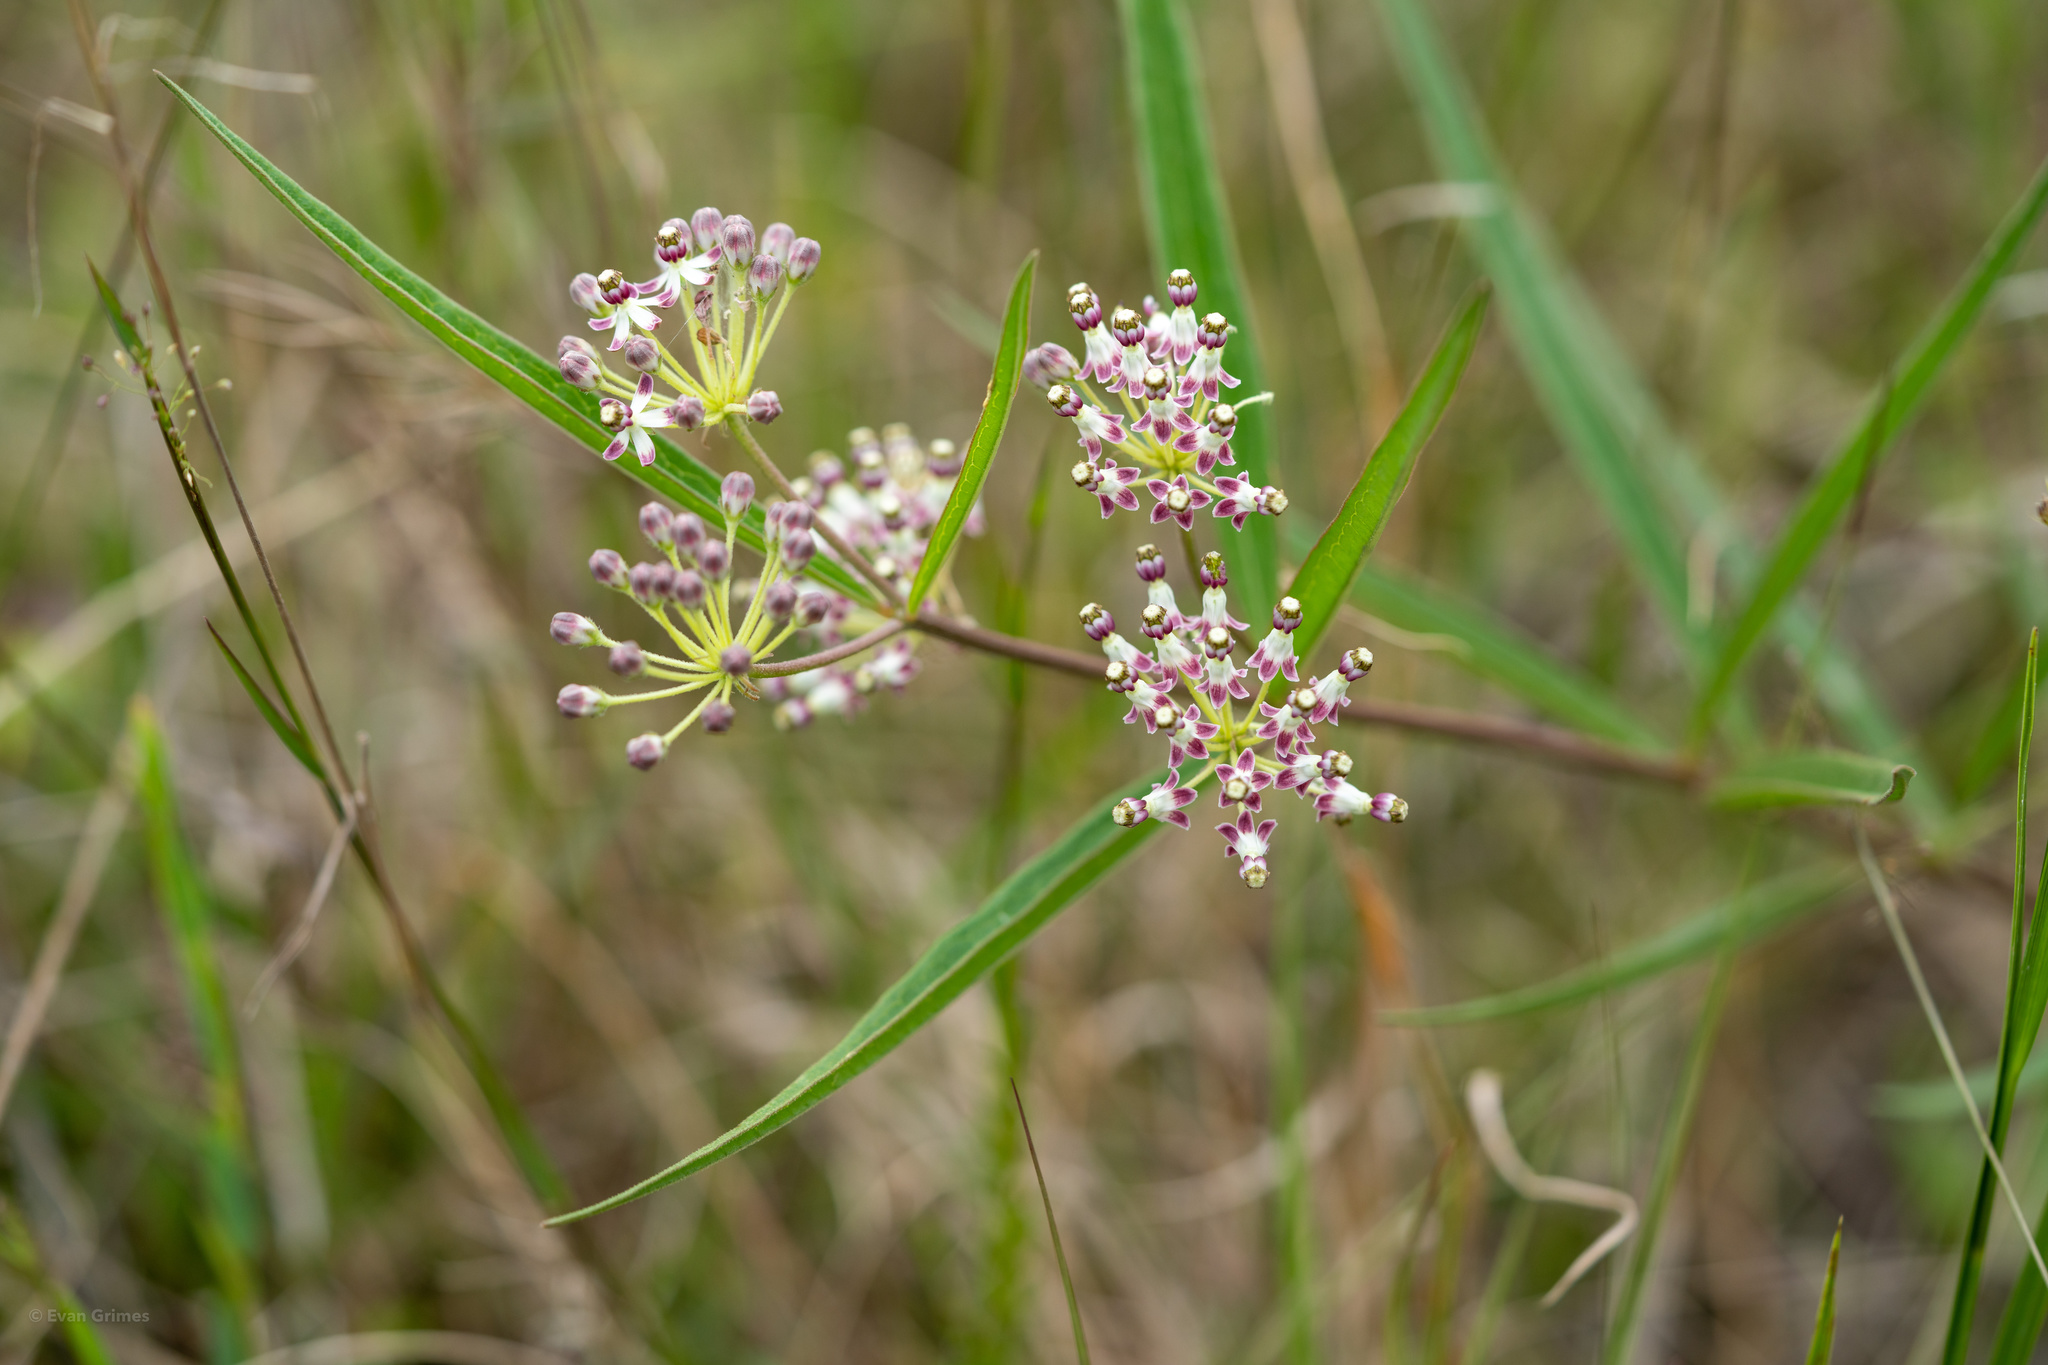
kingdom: Plantae
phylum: Tracheophyta
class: Magnoliopsida
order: Gentianales
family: Apocynaceae
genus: Asclepias
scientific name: Asclepias longifolia
